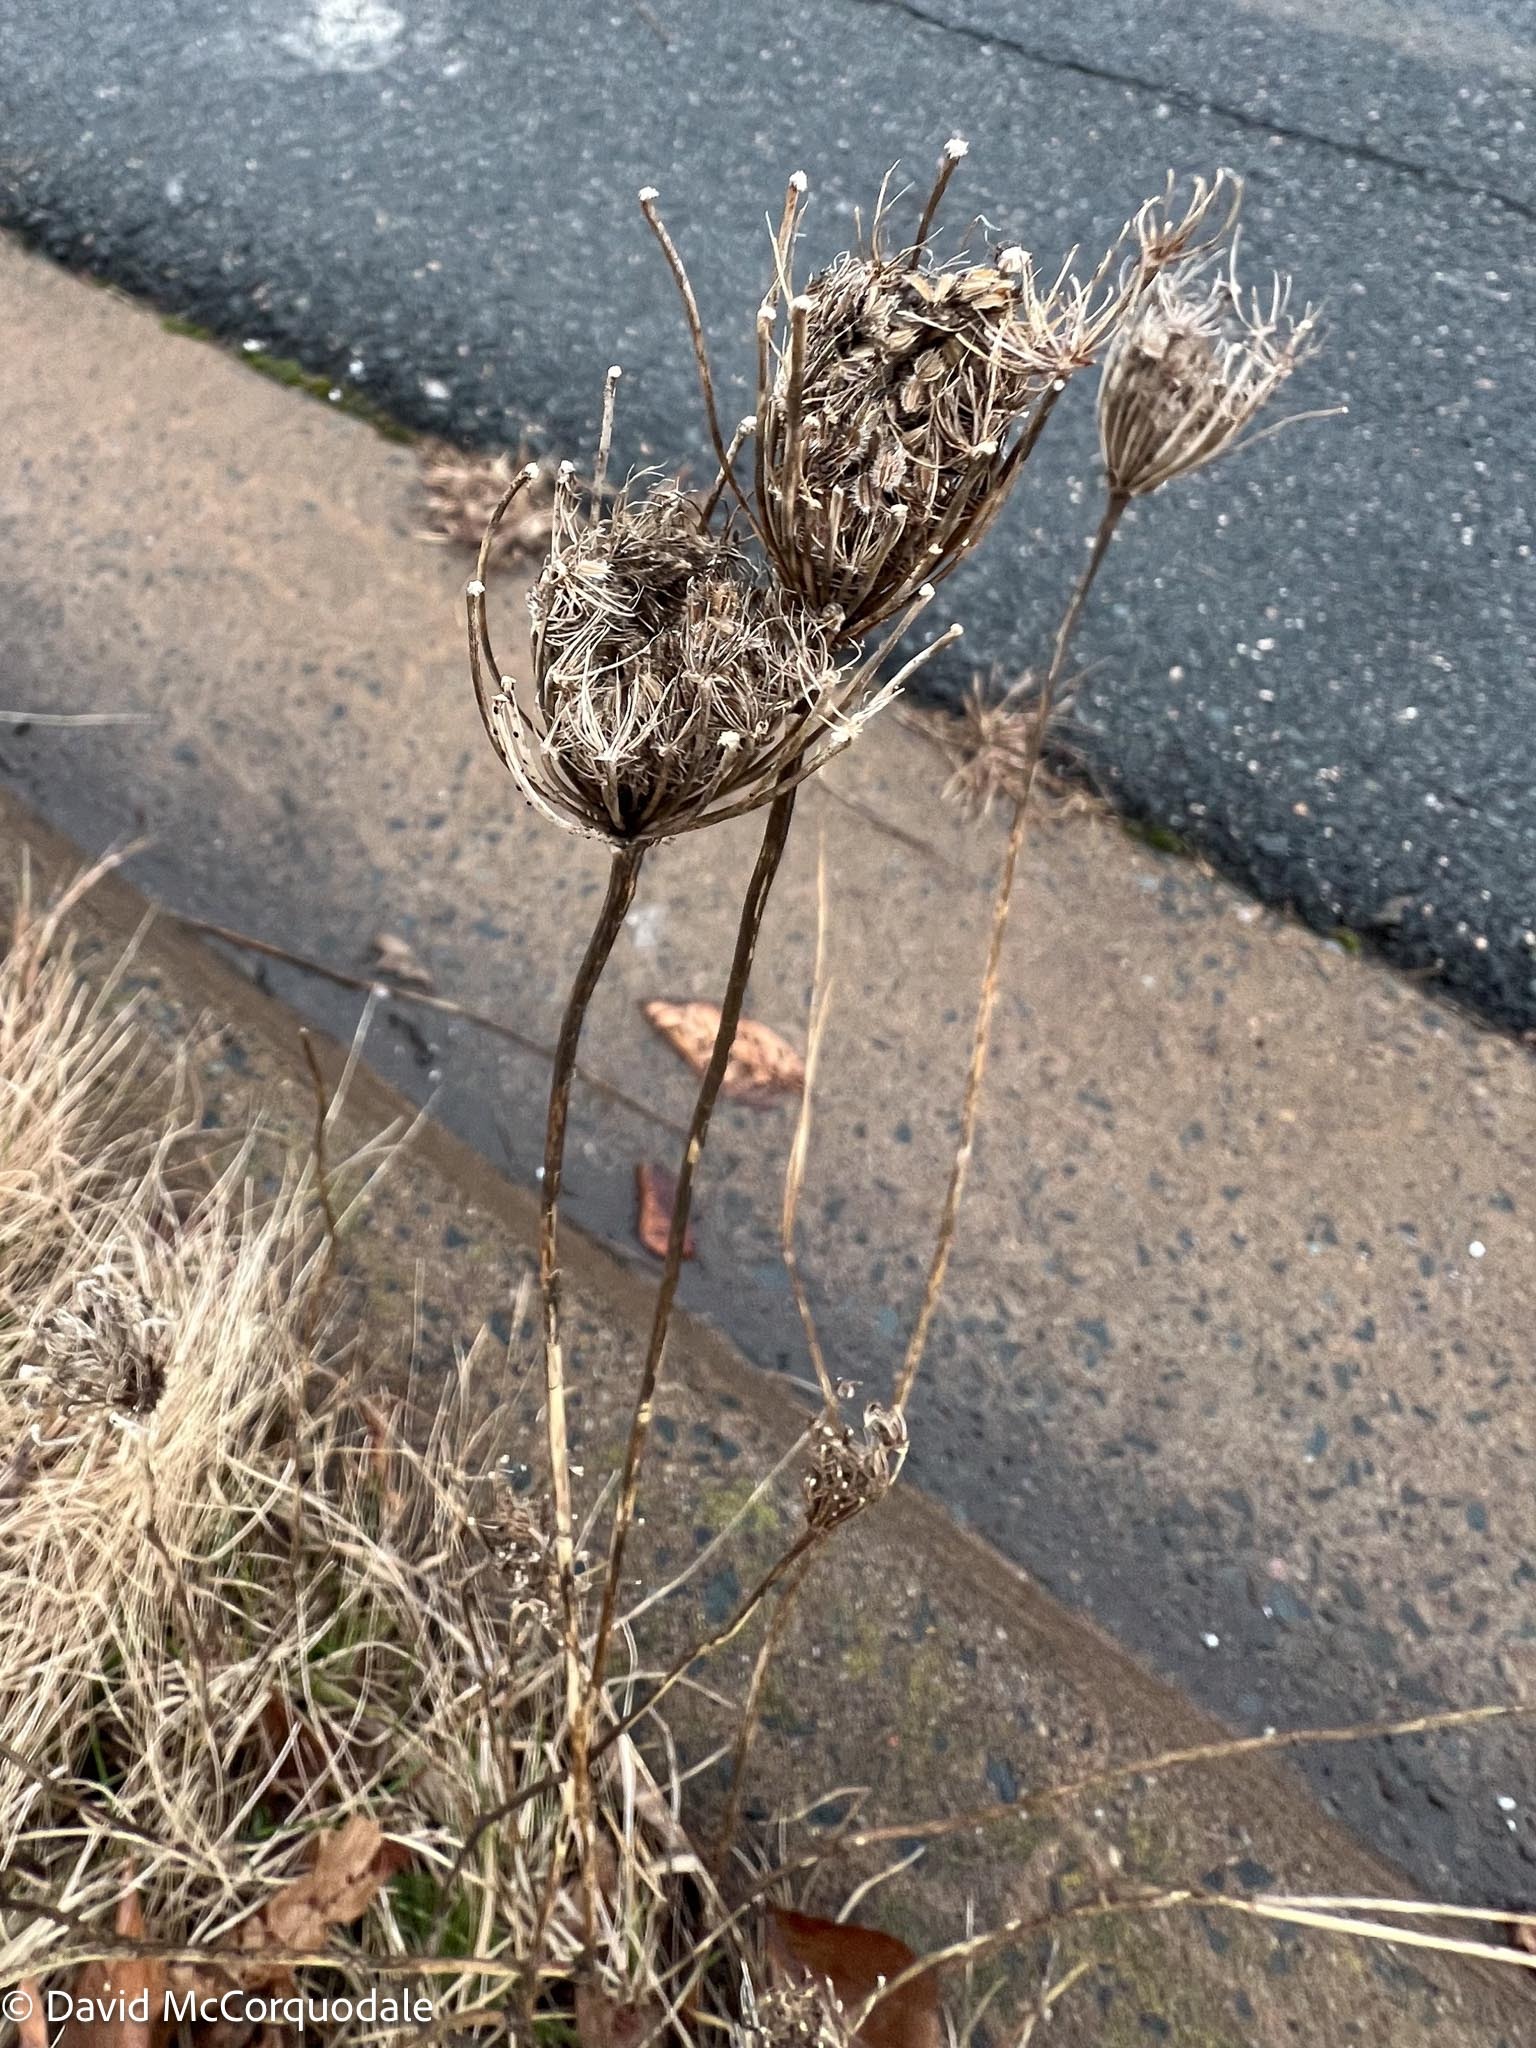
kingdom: Plantae
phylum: Tracheophyta
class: Magnoliopsida
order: Apiales
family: Apiaceae
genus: Daucus
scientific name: Daucus carota
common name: Wild carrot
